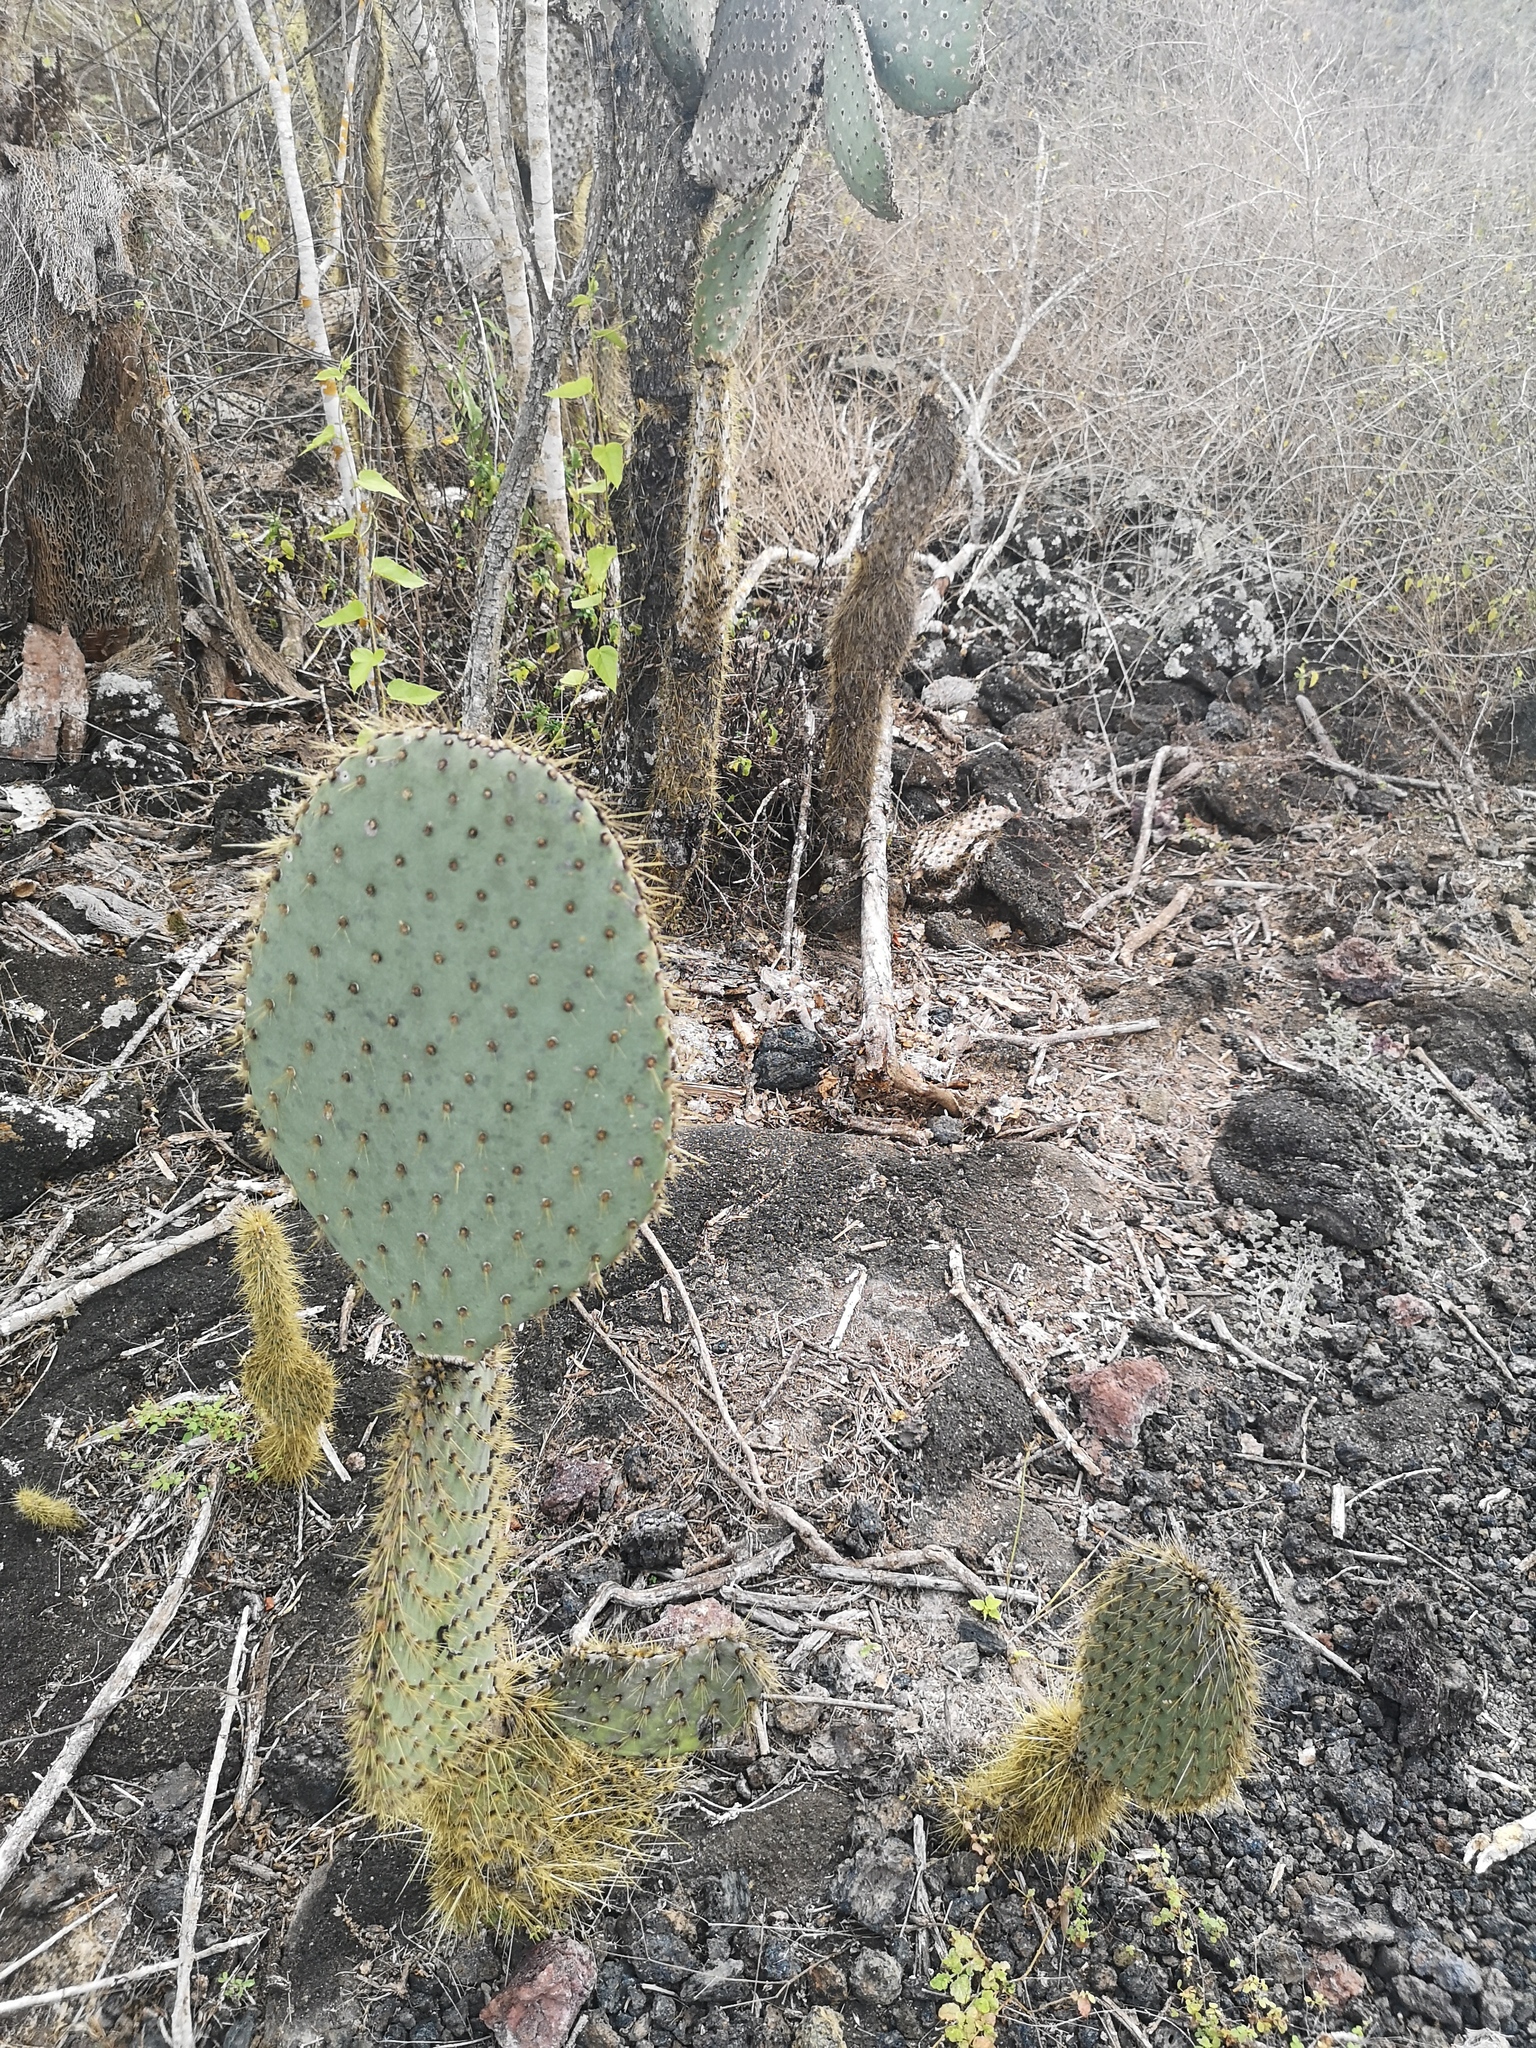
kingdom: Plantae
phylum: Tracheophyta
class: Magnoliopsida
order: Caryophyllales
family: Cactaceae
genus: Opuntia
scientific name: Opuntia galapageia
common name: Galápagos prickly pear
